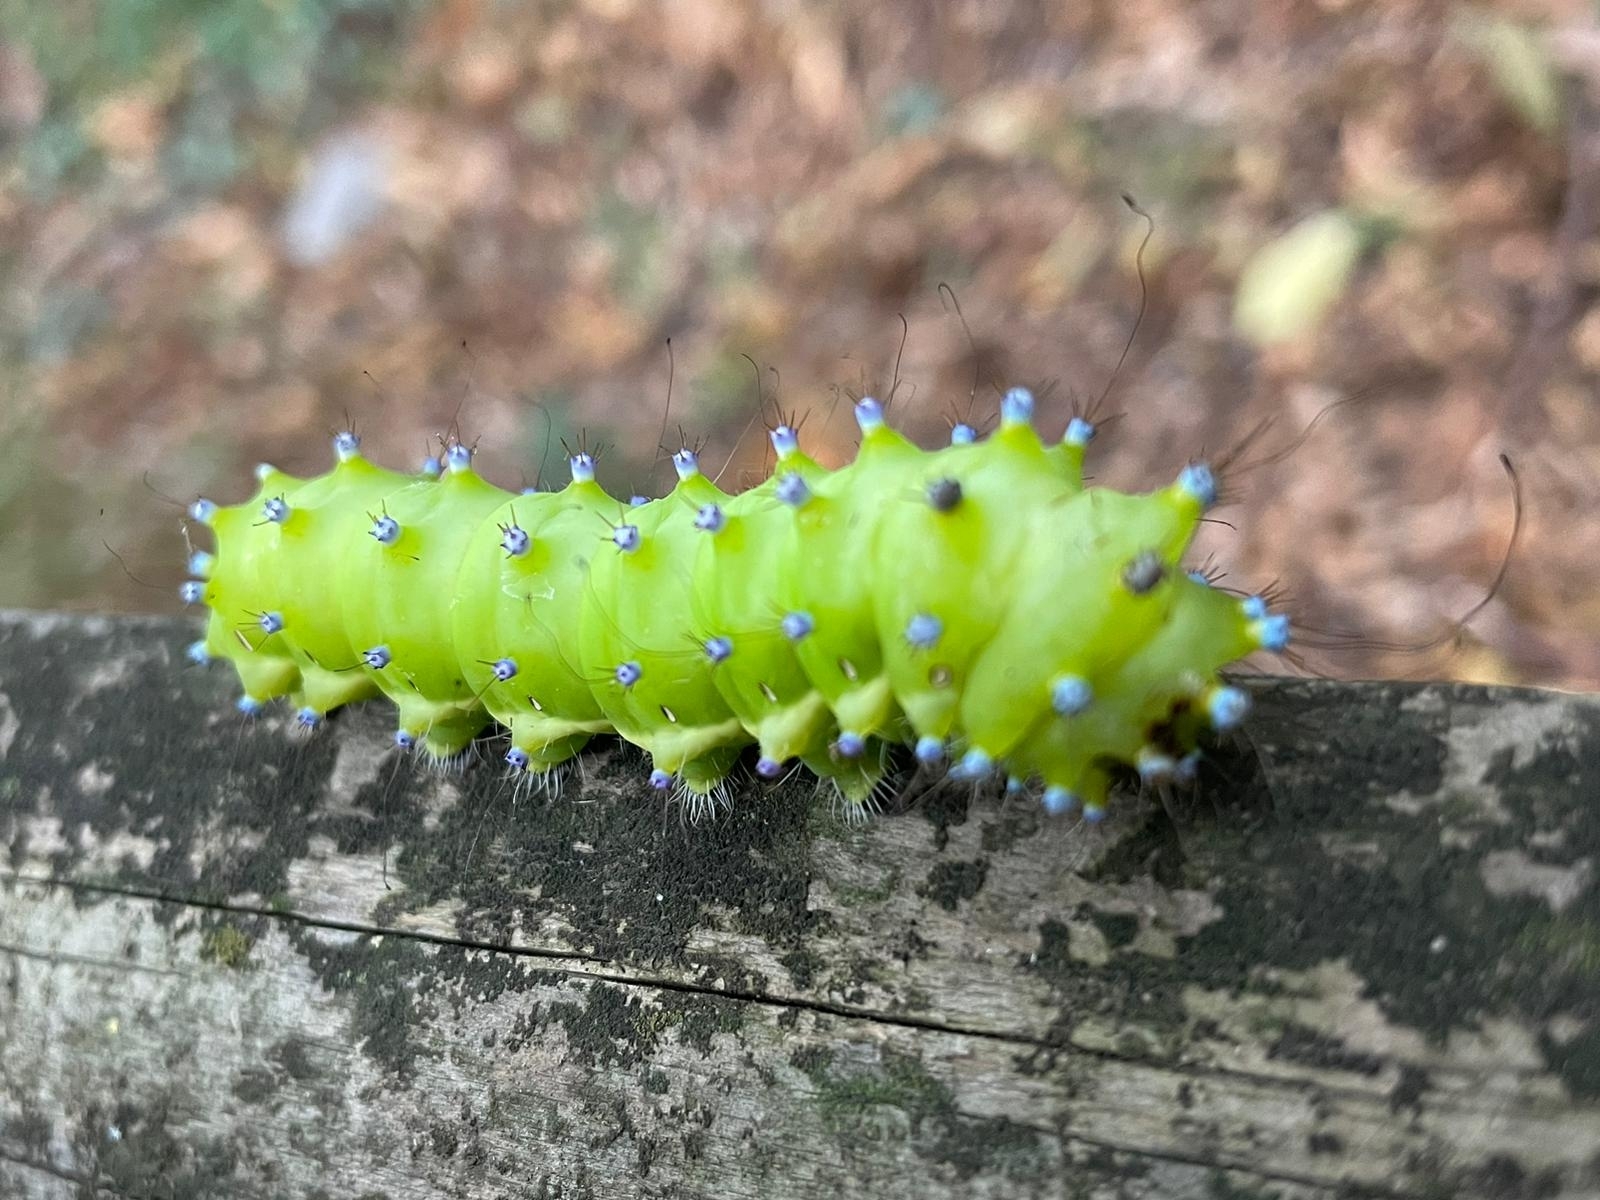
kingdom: Animalia
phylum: Arthropoda
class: Insecta
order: Lepidoptera
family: Saturniidae
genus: Saturnia
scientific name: Saturnia pyri
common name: Great peacock moth
